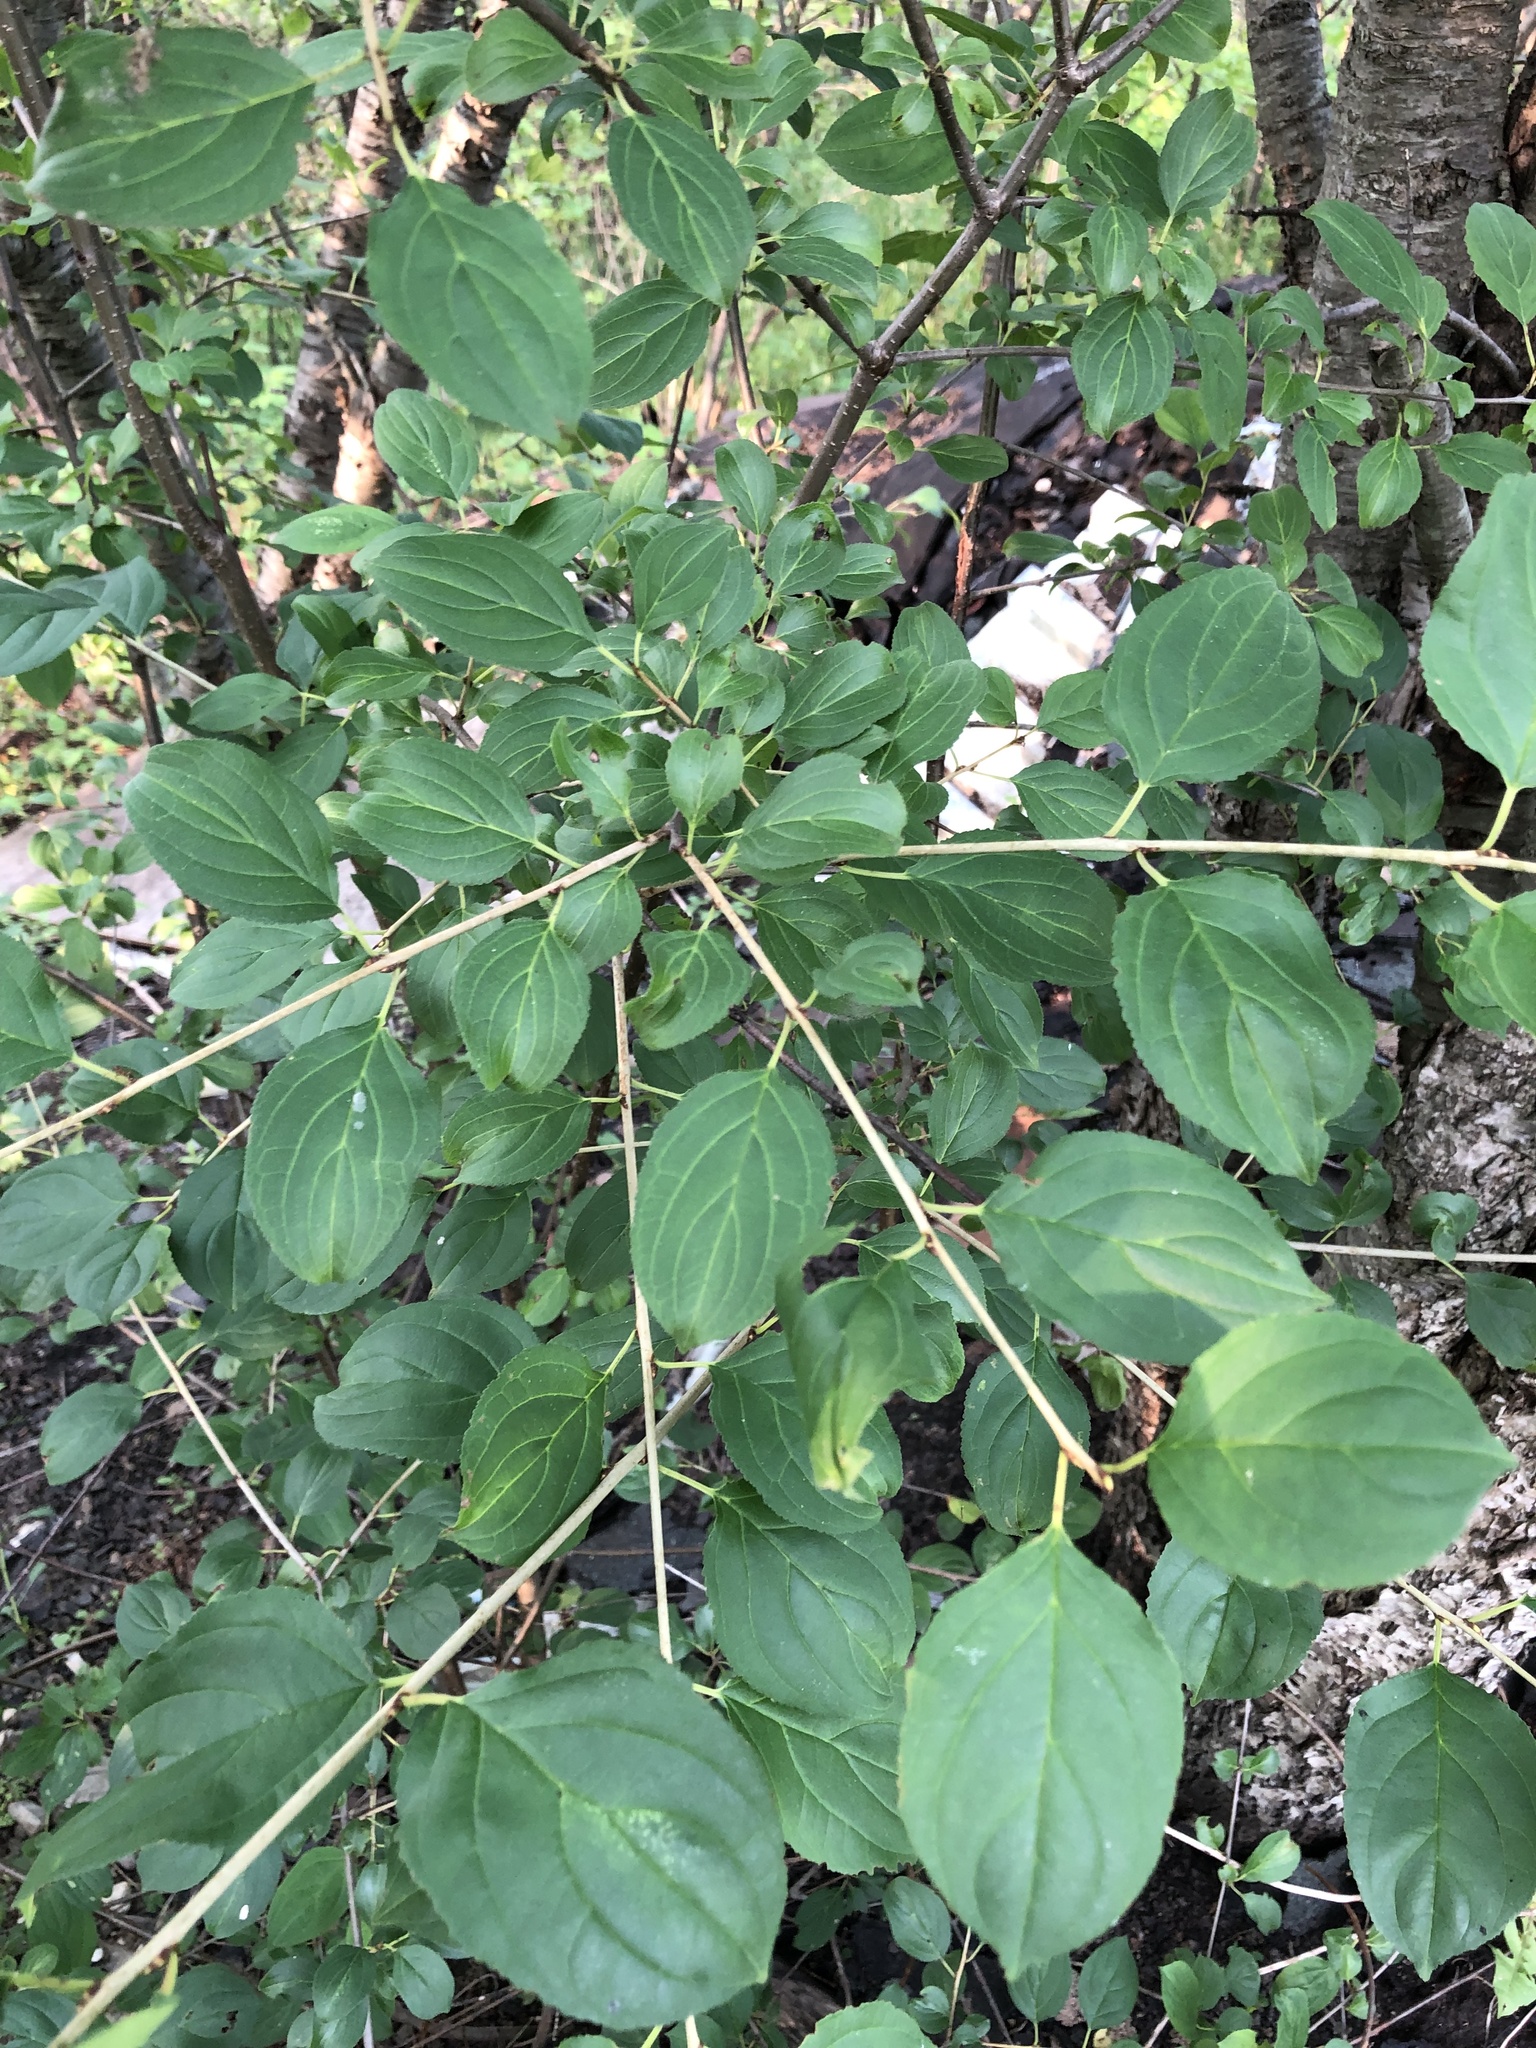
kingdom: Plantae
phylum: Tracheophyta
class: Magnoliopsida
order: Rosales
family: Rhamnaceae
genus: Rhamnus
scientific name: Rhamnus cathartica
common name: Common buckthorn
